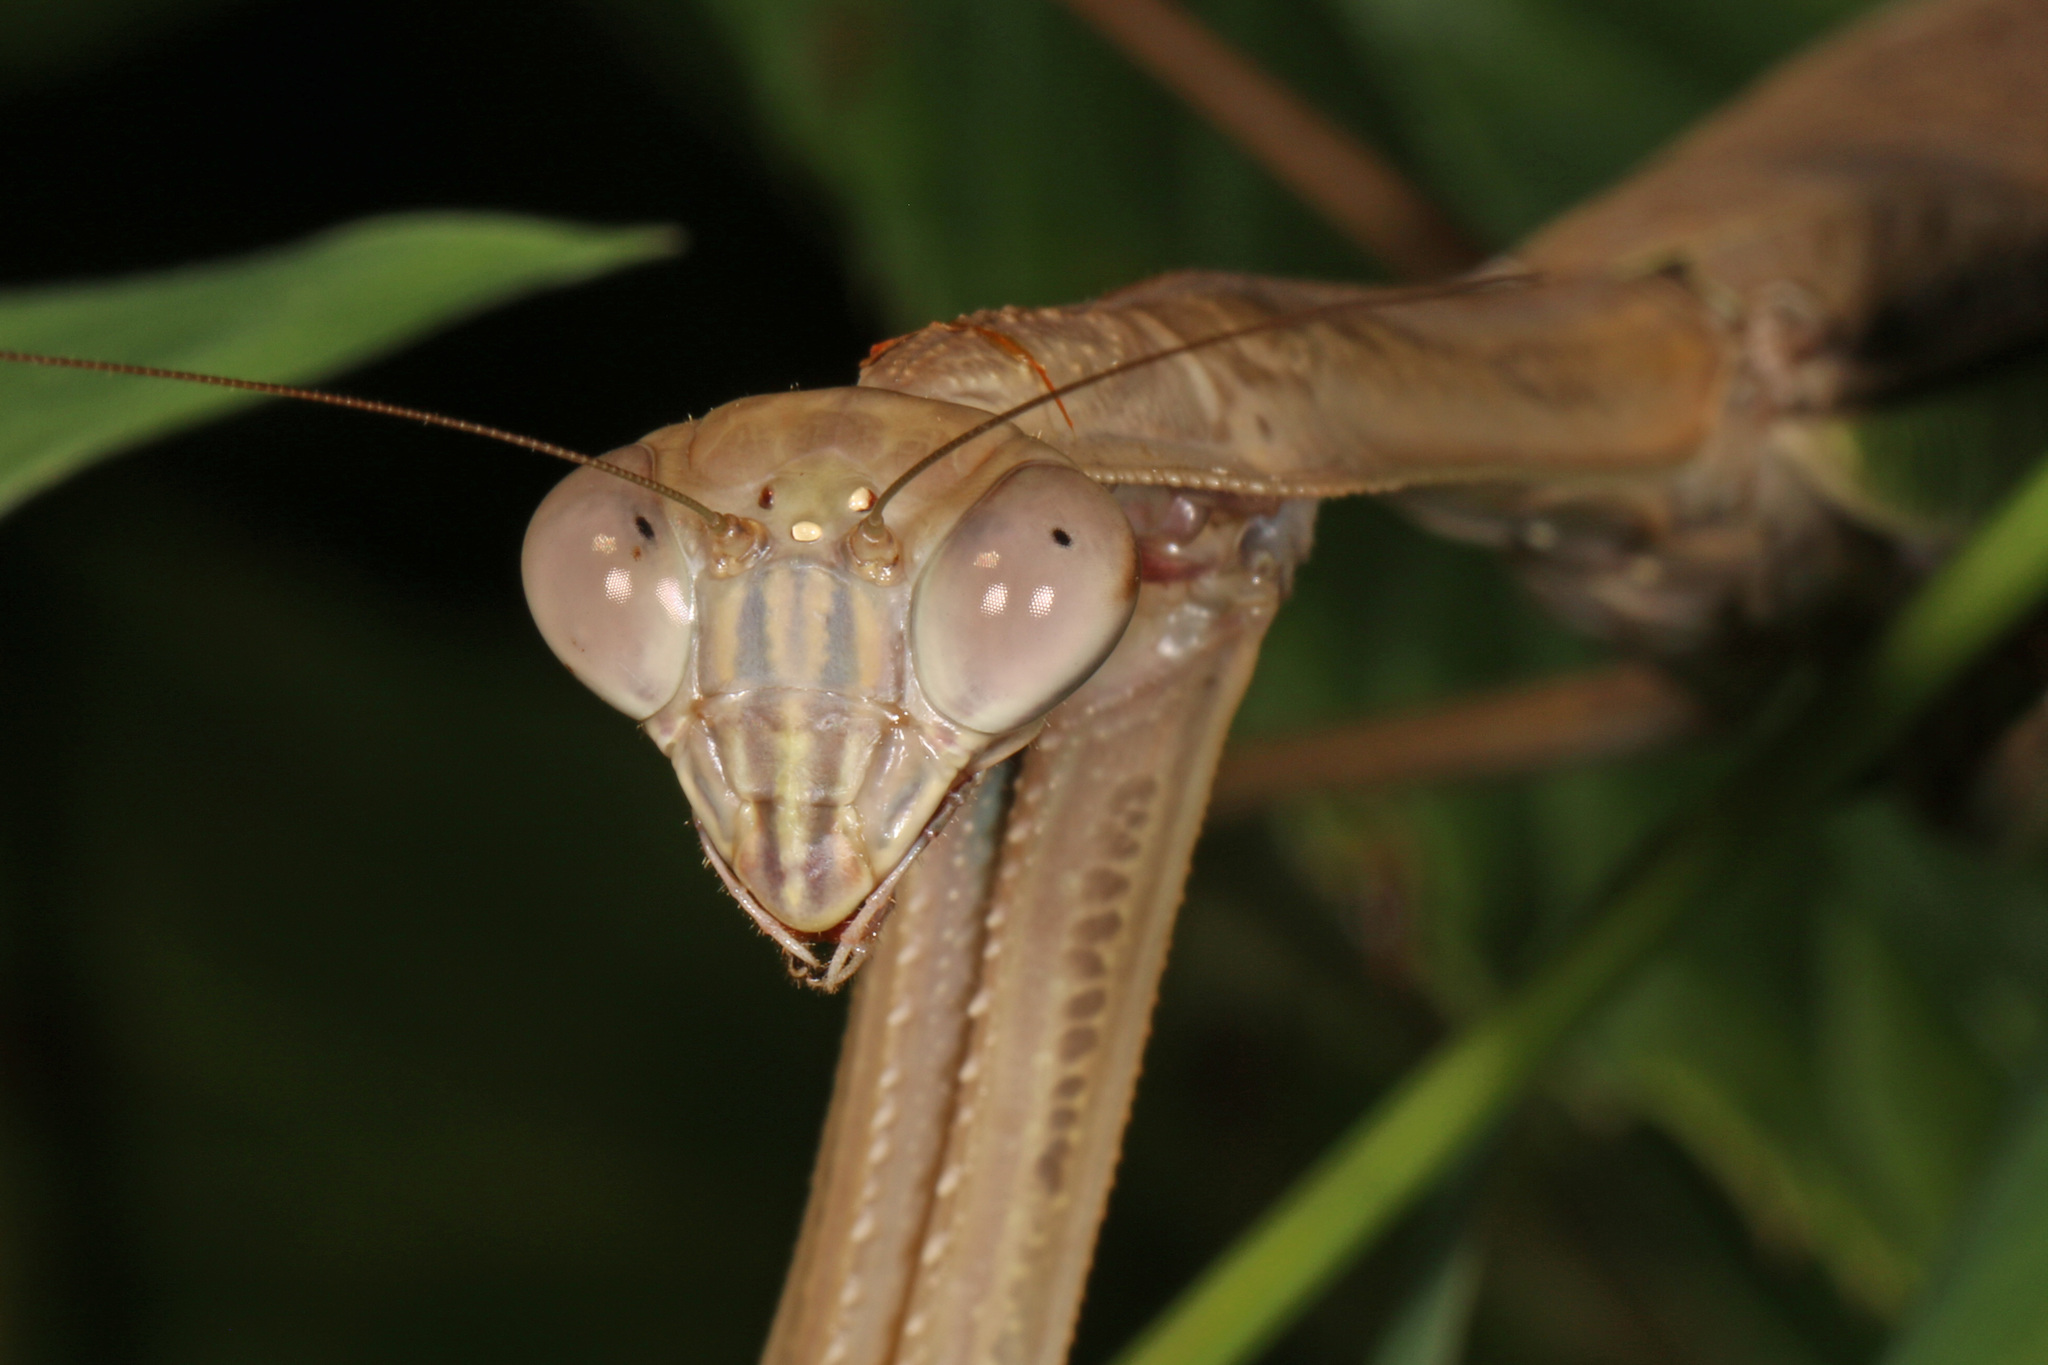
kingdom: Animalia
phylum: Arthropoda
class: Insecta
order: Mantodea
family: Mantidae
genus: Tenodera
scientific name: Tenodera sinensis
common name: Chinese mantis
